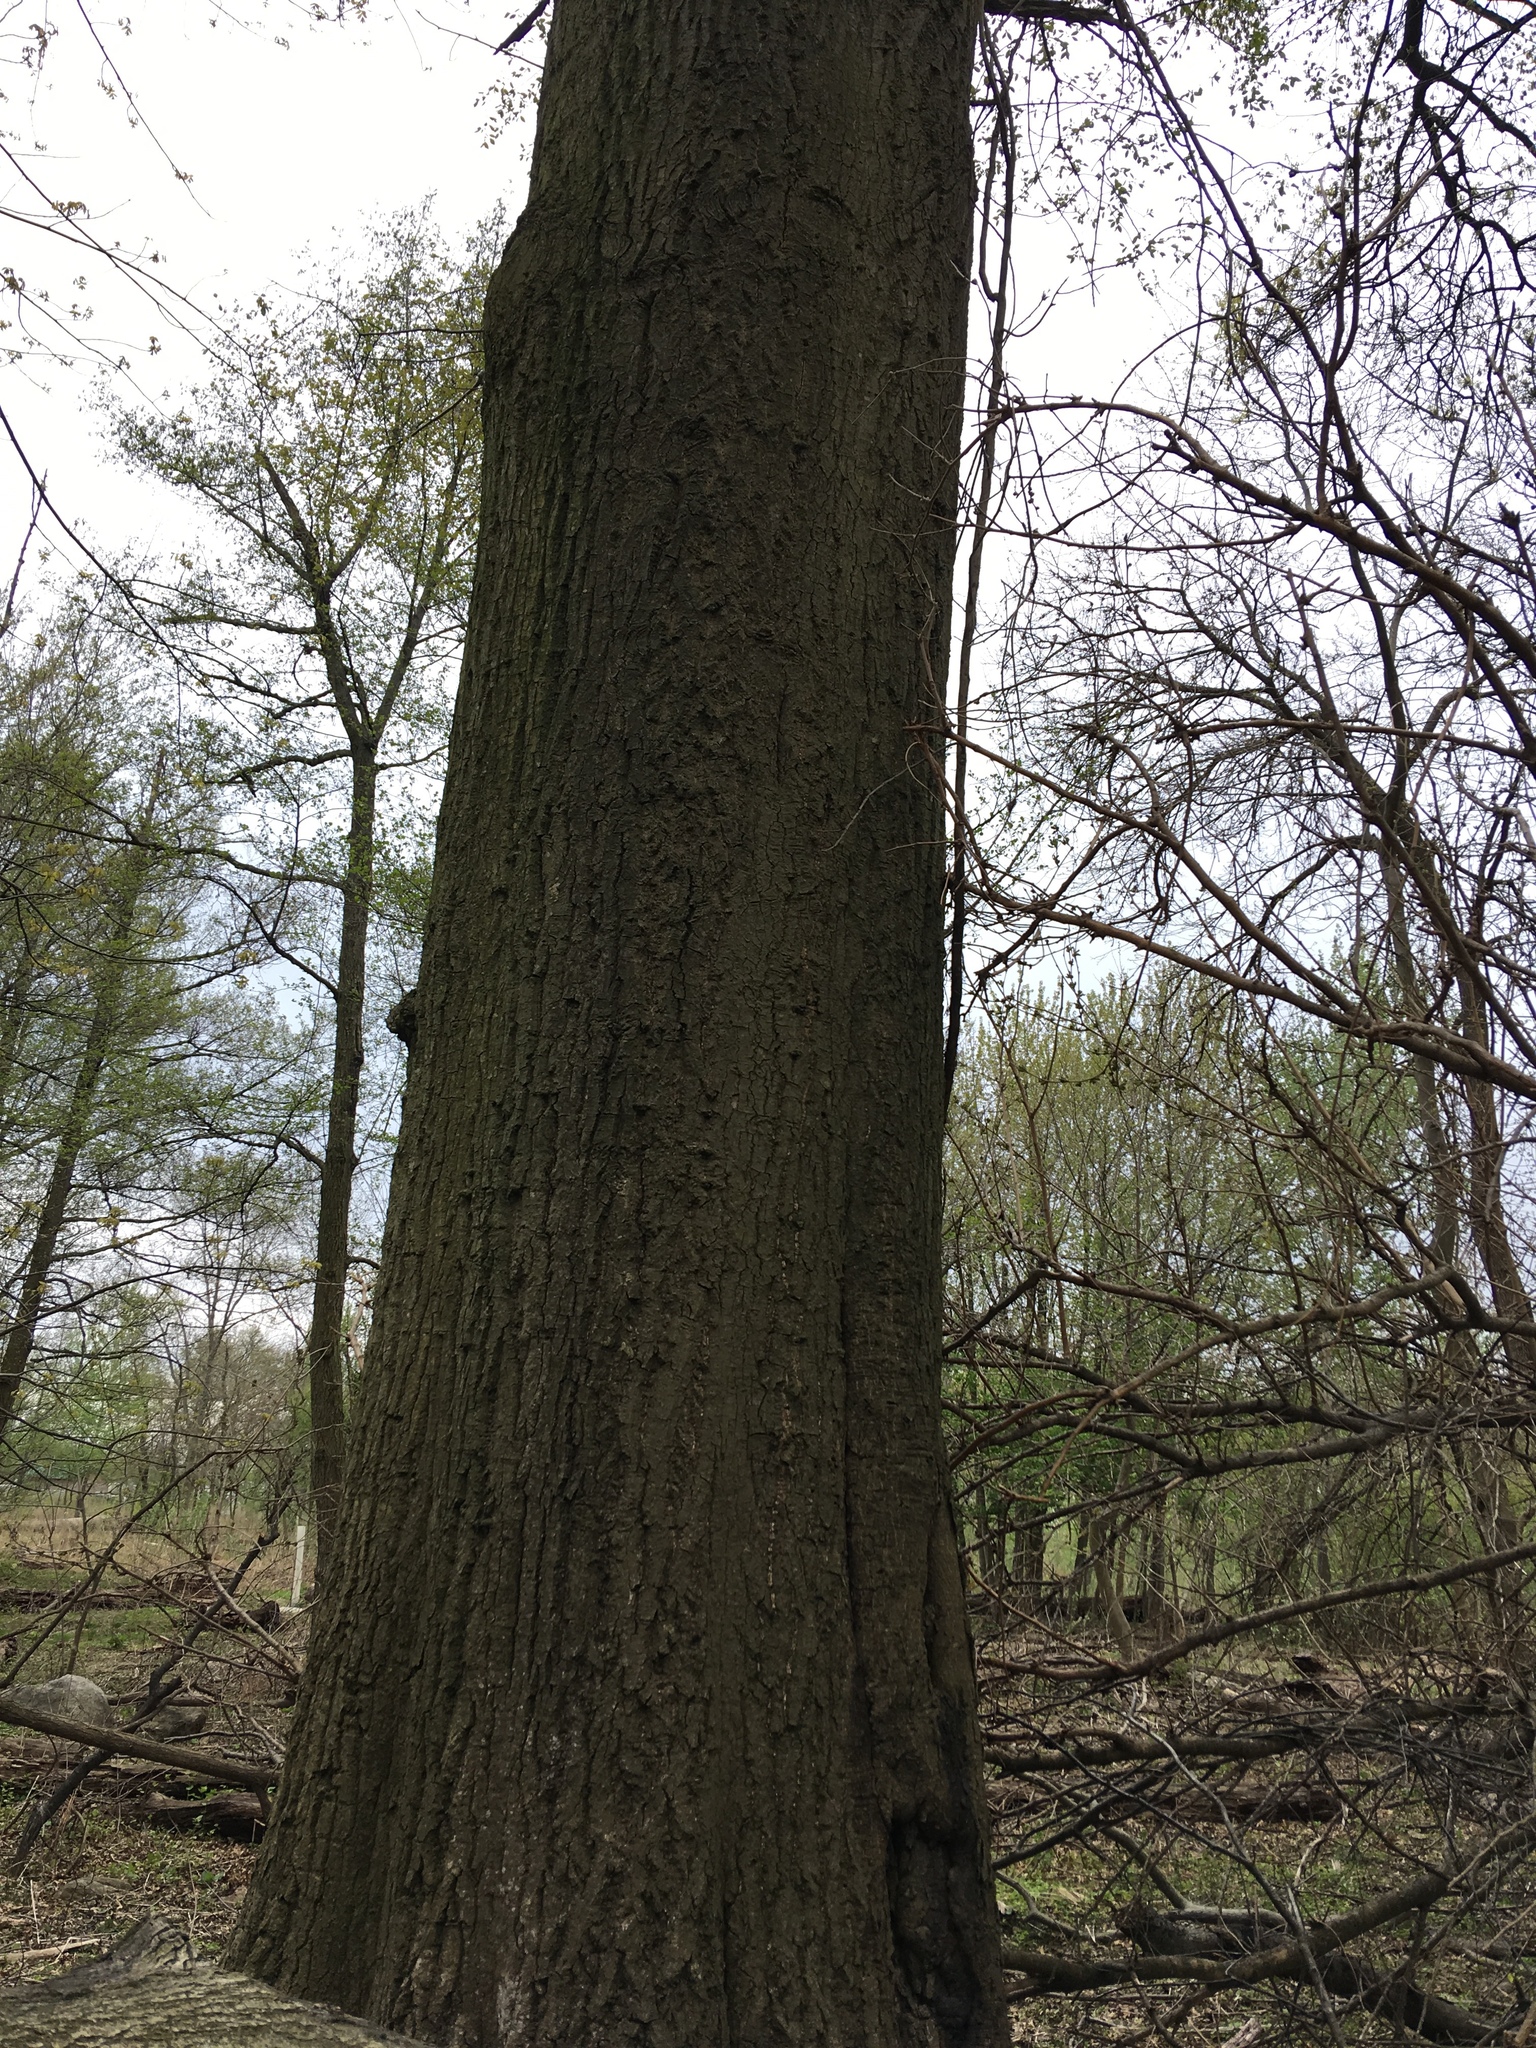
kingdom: Plantae
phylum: Tracheophyta
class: Magnoliopsida
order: Fagales
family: Fagaceae
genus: Quercus
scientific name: Quercus rubra
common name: Red oak
